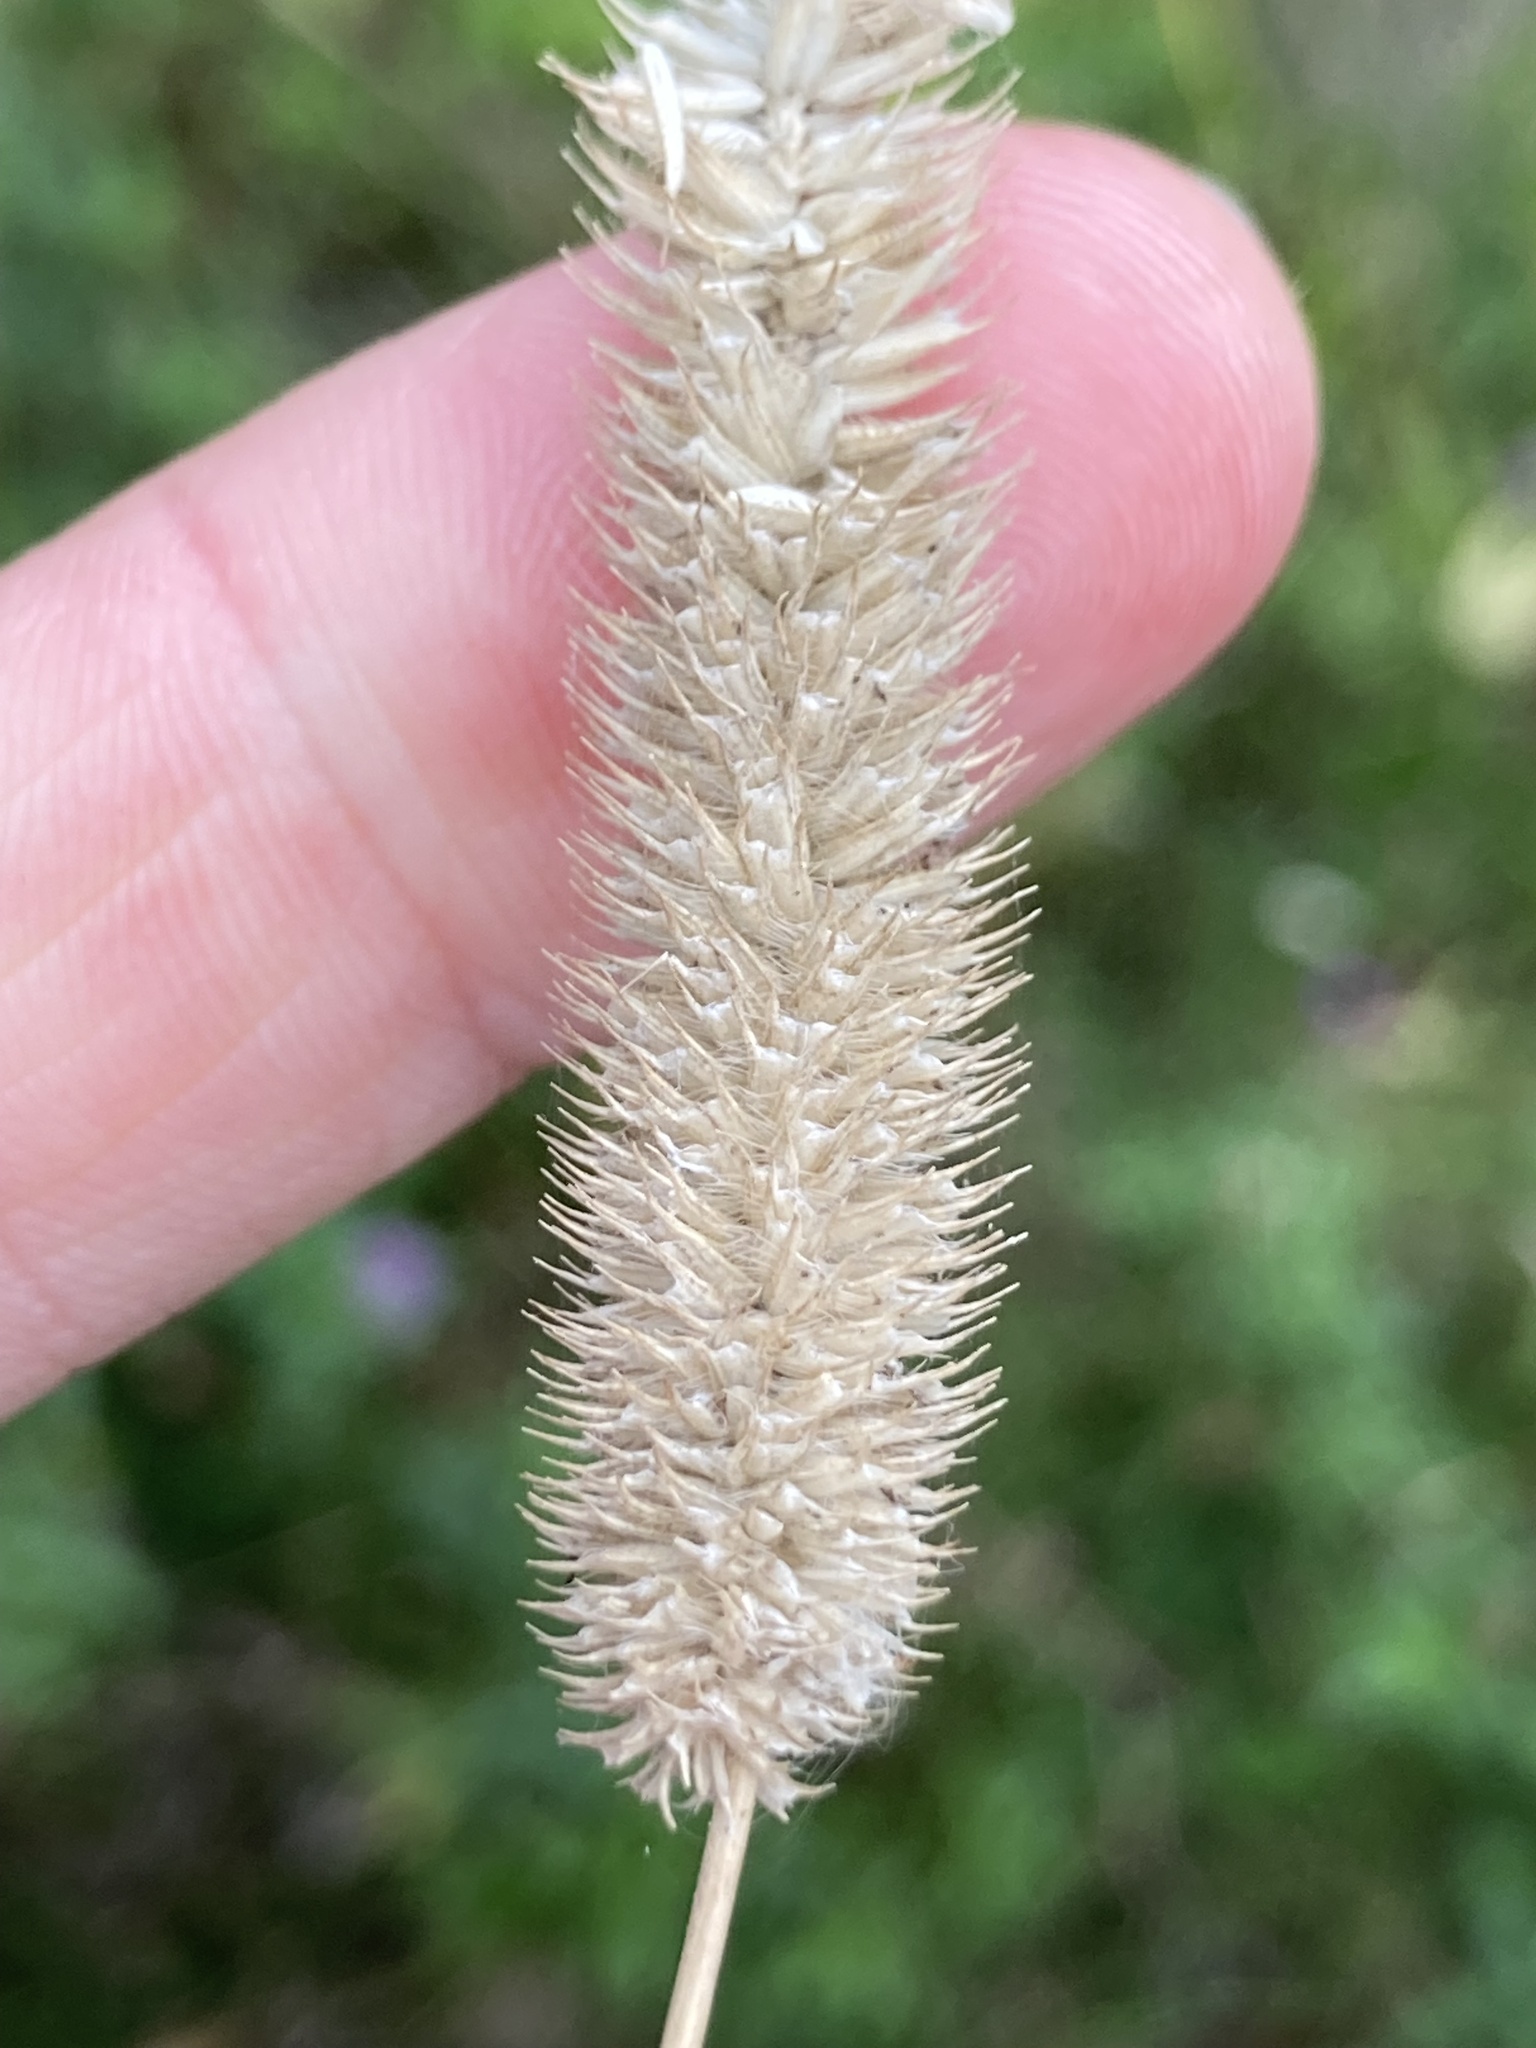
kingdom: Plantae
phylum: Tracheophyta
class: Liliopsida
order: Poales
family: Poaceae
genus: Phleum
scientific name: Phleum pratense
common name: Timothy grass
